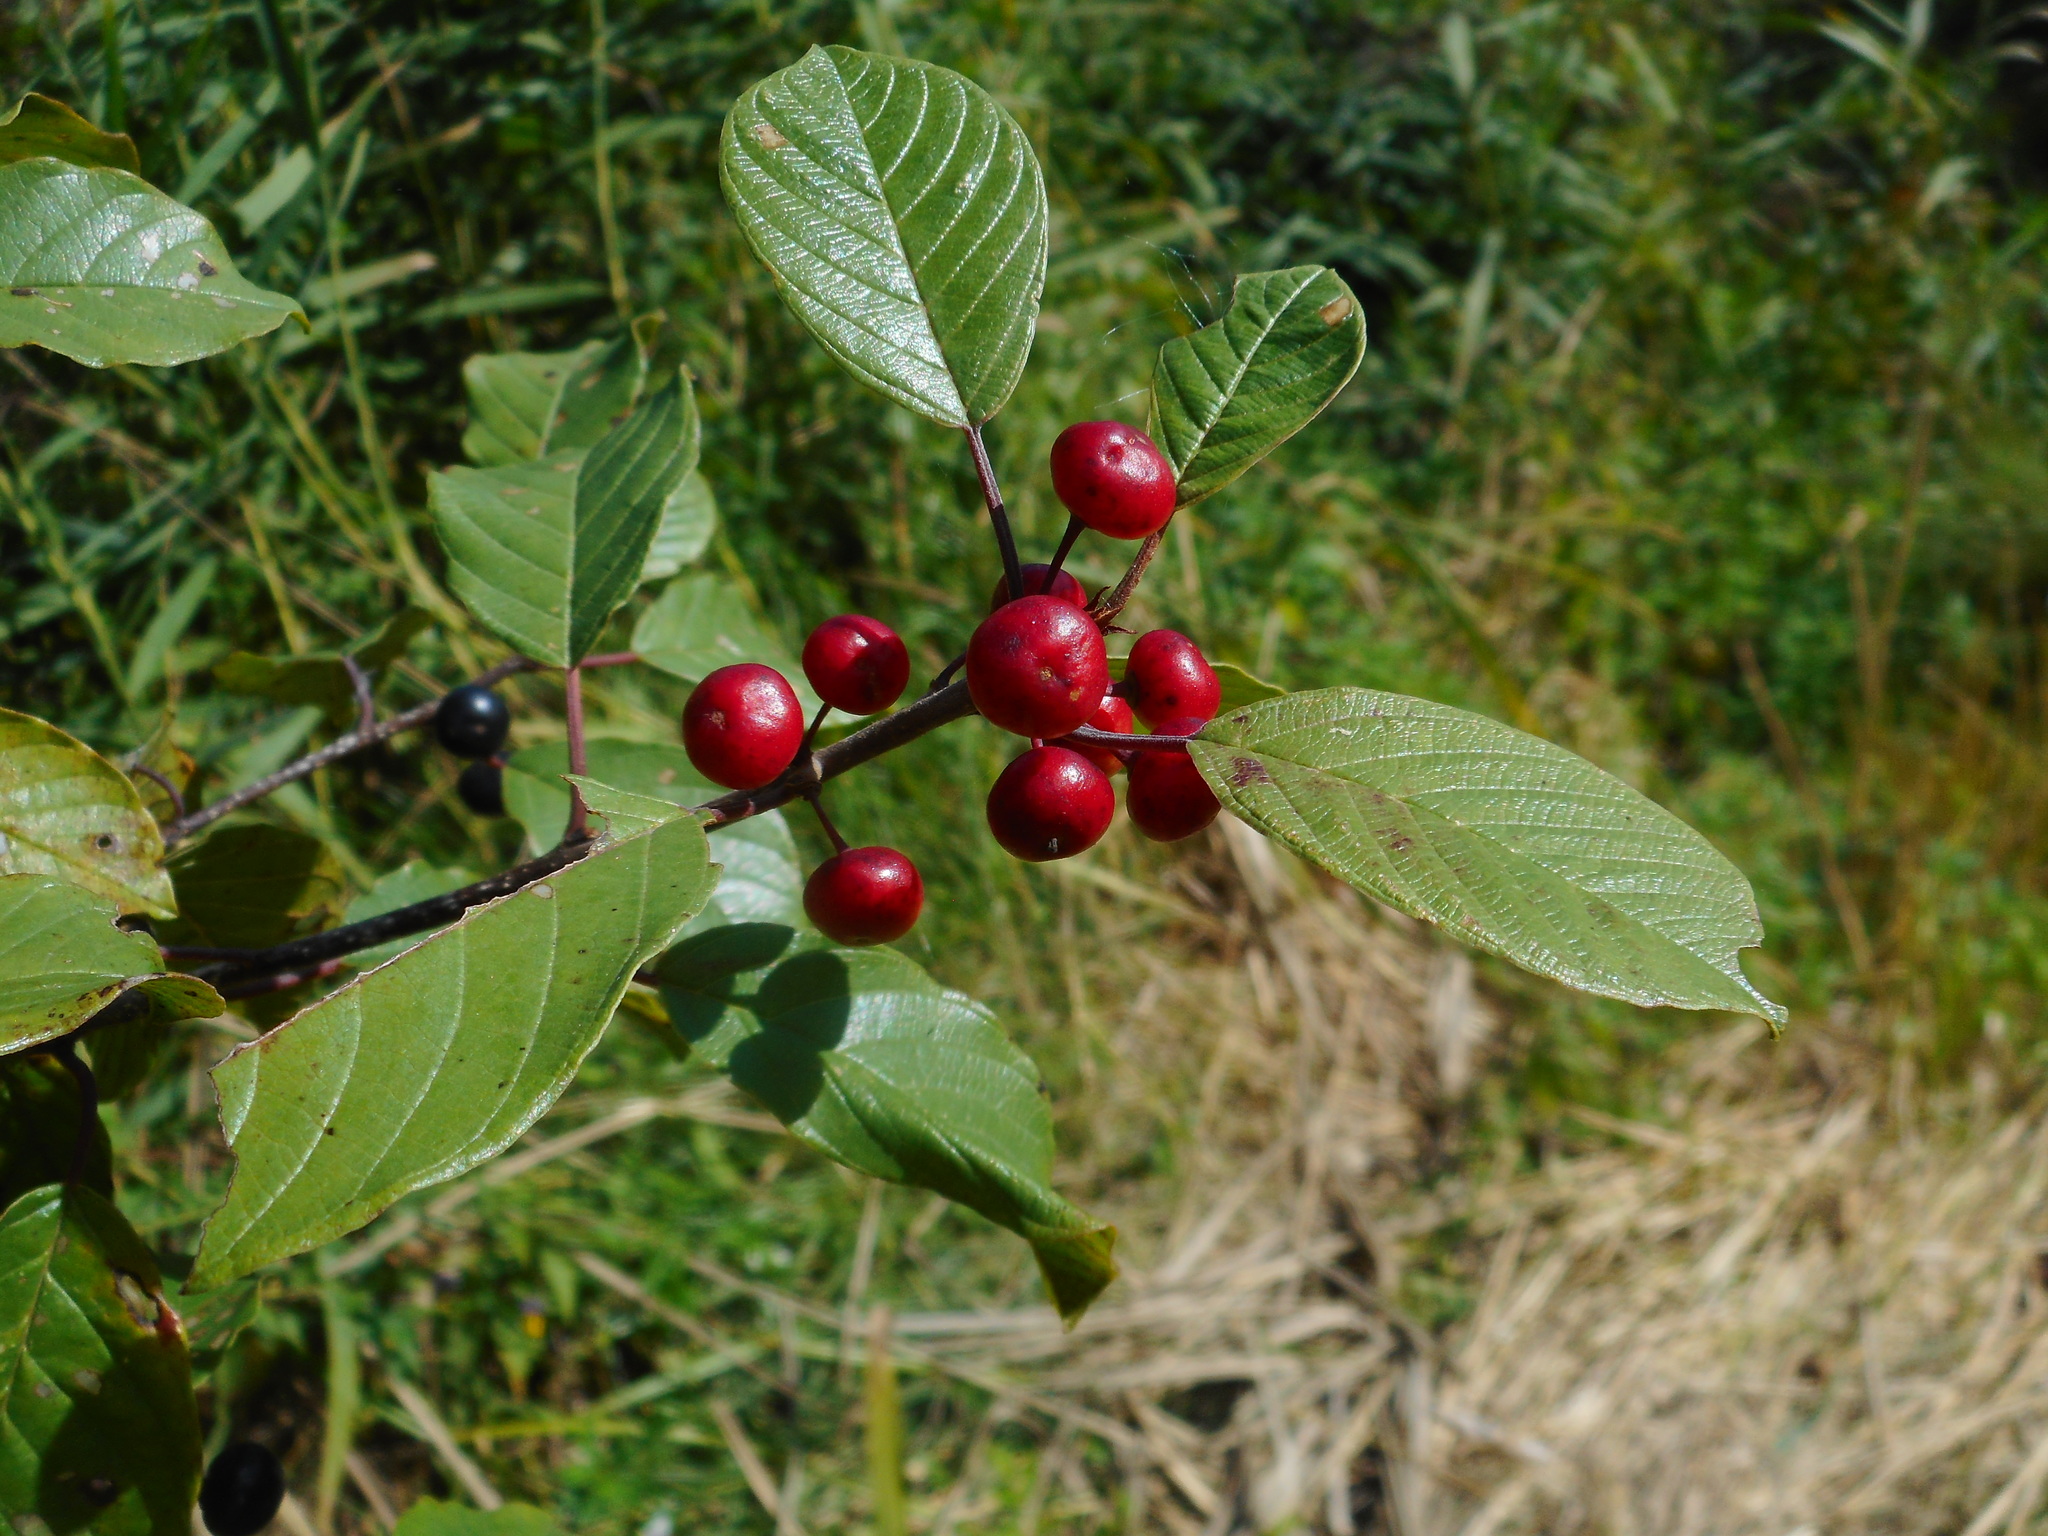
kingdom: Plantae
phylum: Tracheophyta
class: Magnoliopsida
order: Rosales
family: Rhamnaceae
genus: Frangula
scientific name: Frangula alnus
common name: Alder buckthorn
